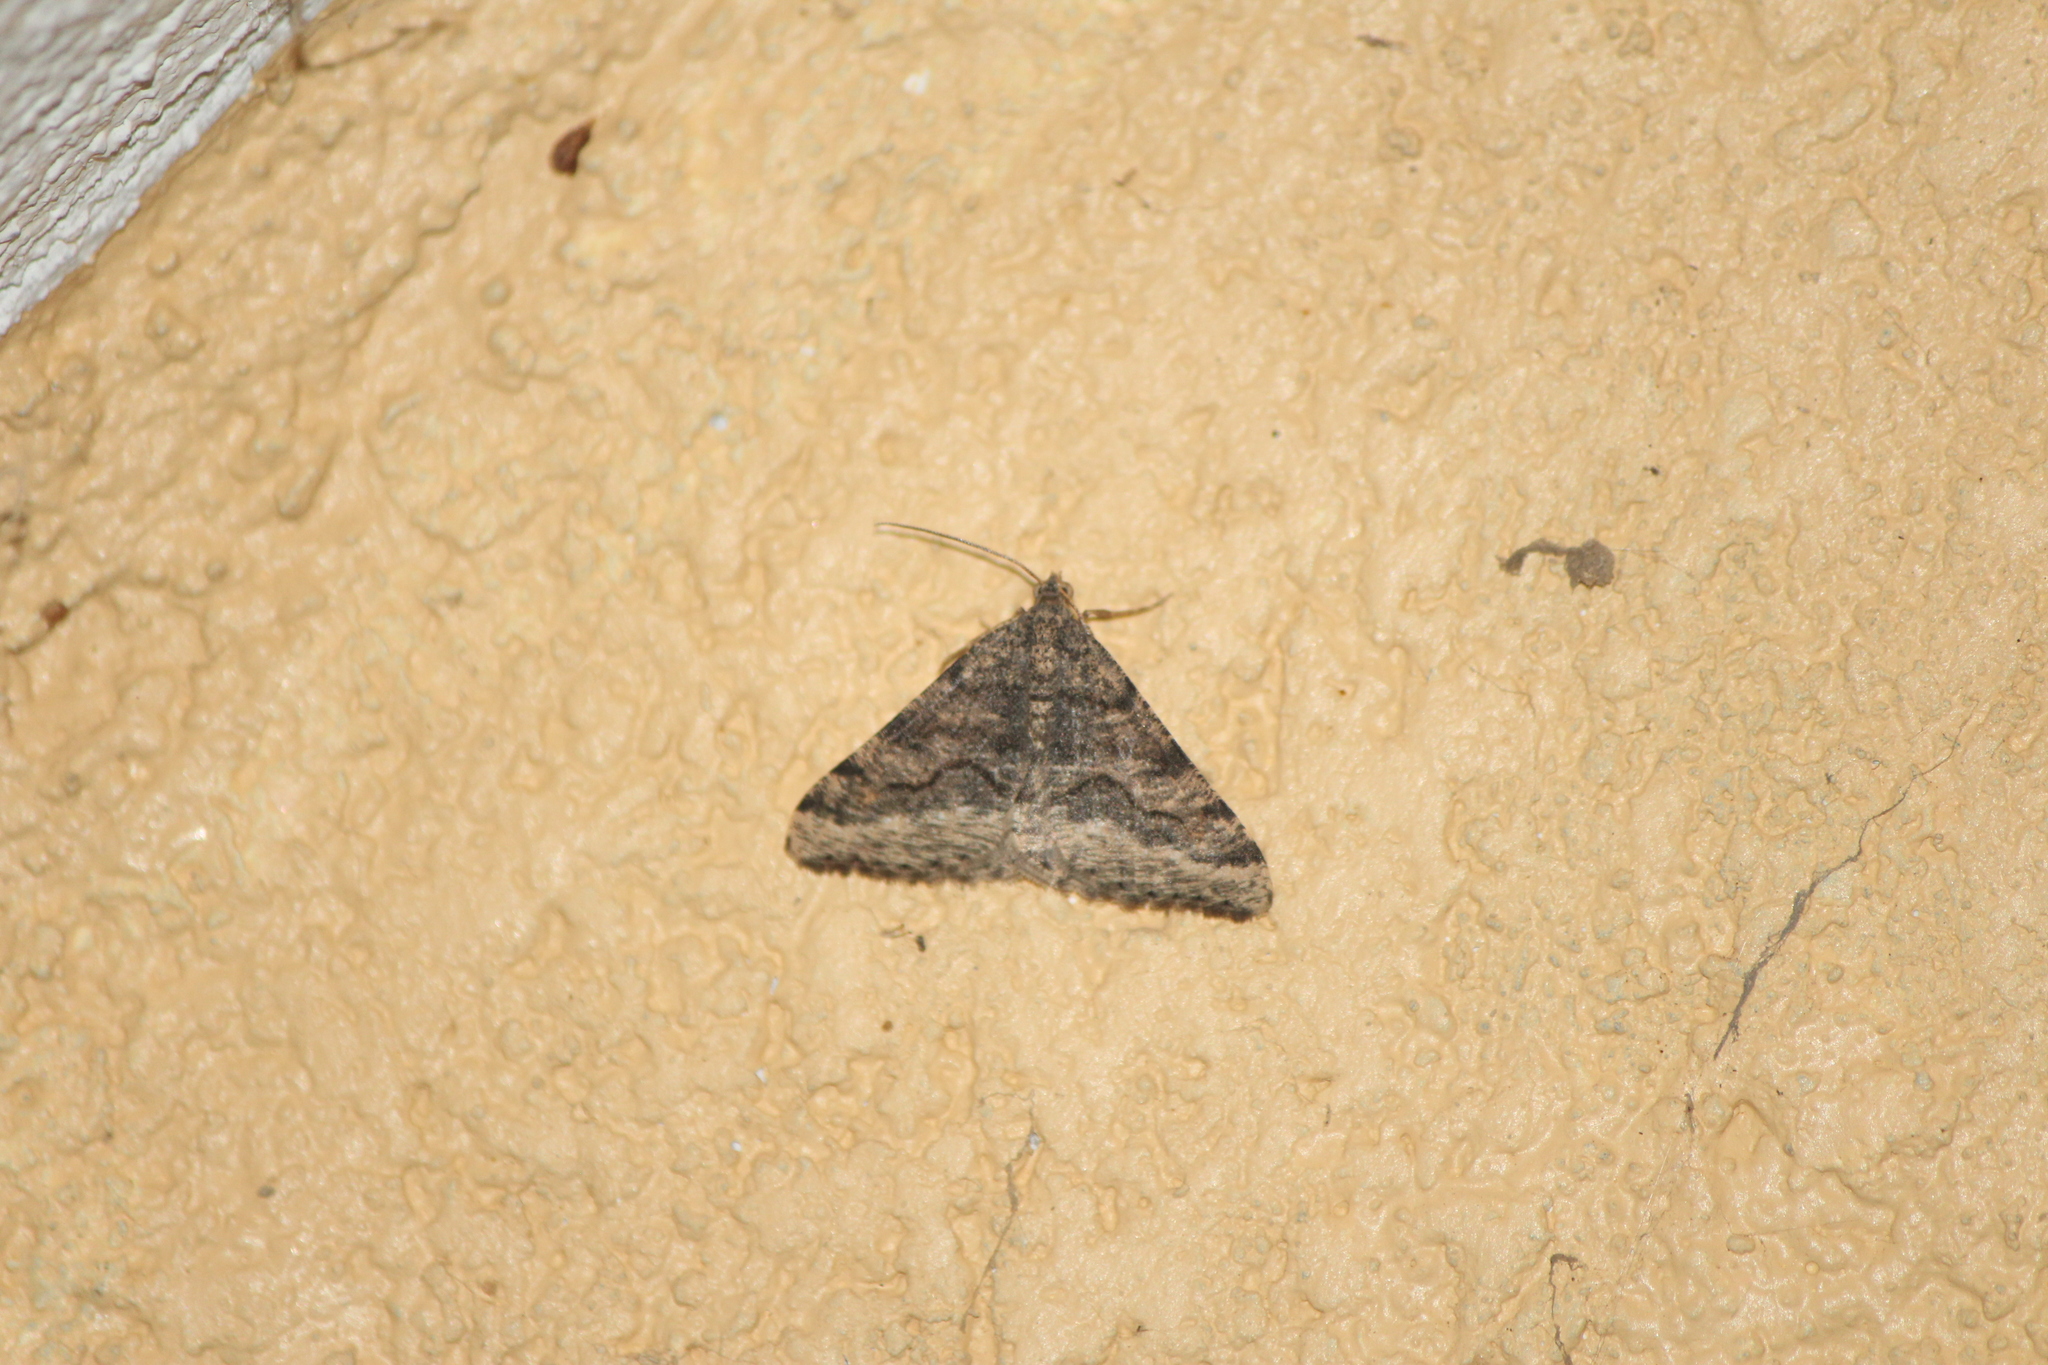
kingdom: Animalia
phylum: Arthropoda
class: Insecta
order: Lepidoptera
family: Geometridae
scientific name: Geometridae
